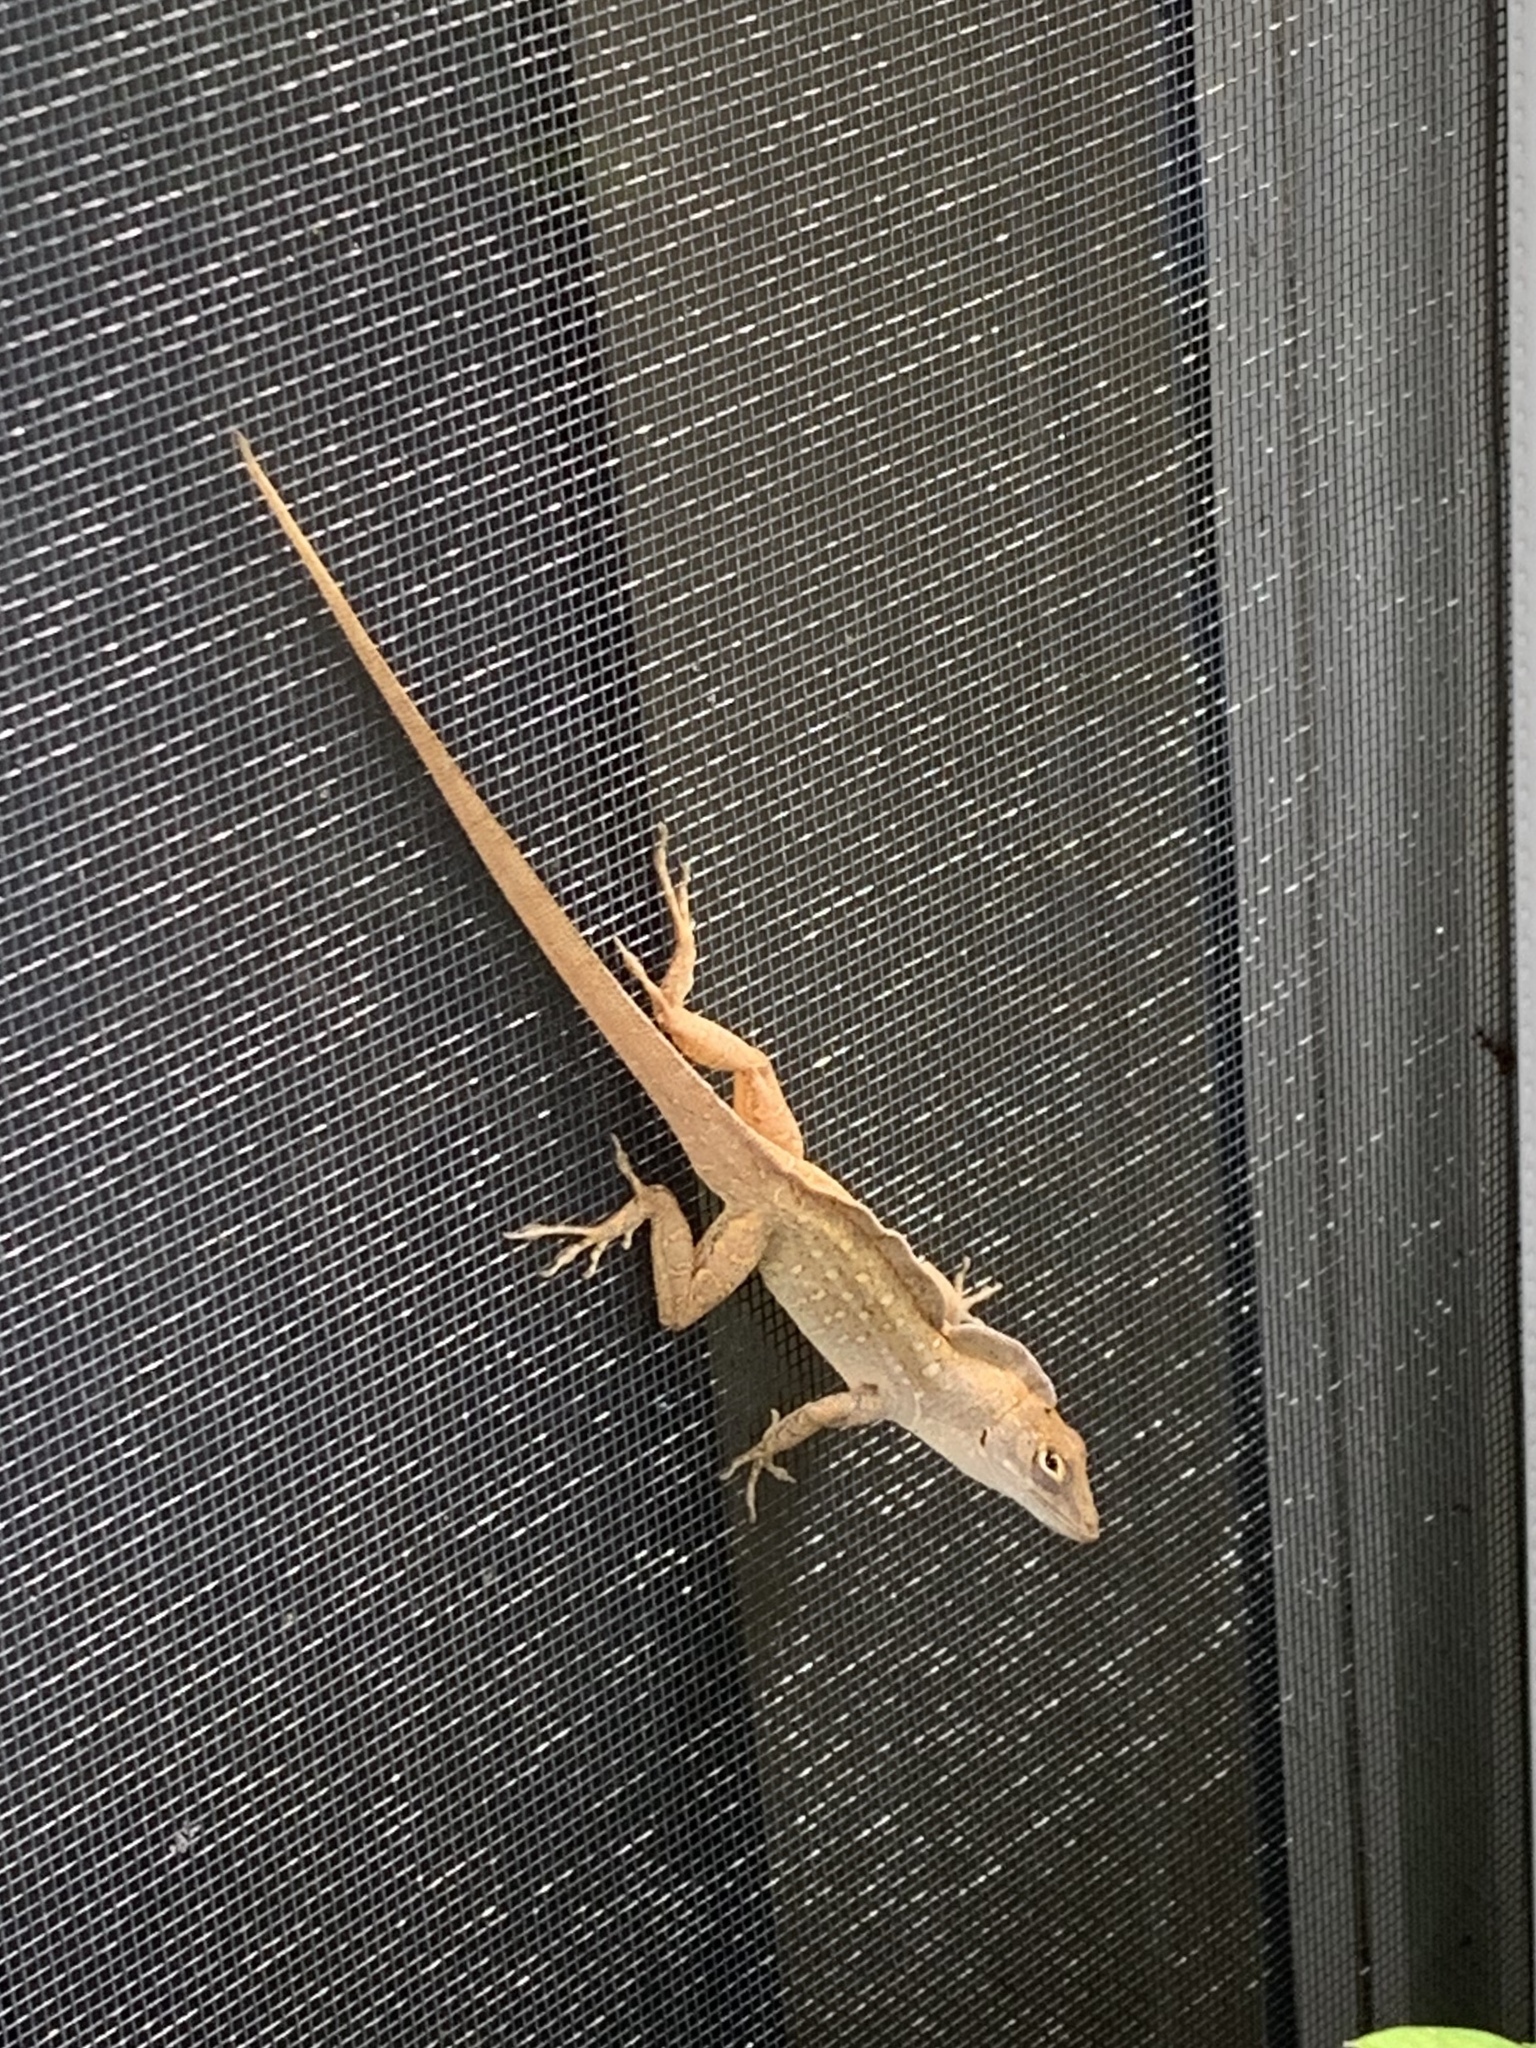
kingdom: Animalia
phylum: Chordata
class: Squamata
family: Dactyloidae
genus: Anolis
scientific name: Anolis sagrei
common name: Brown anole
